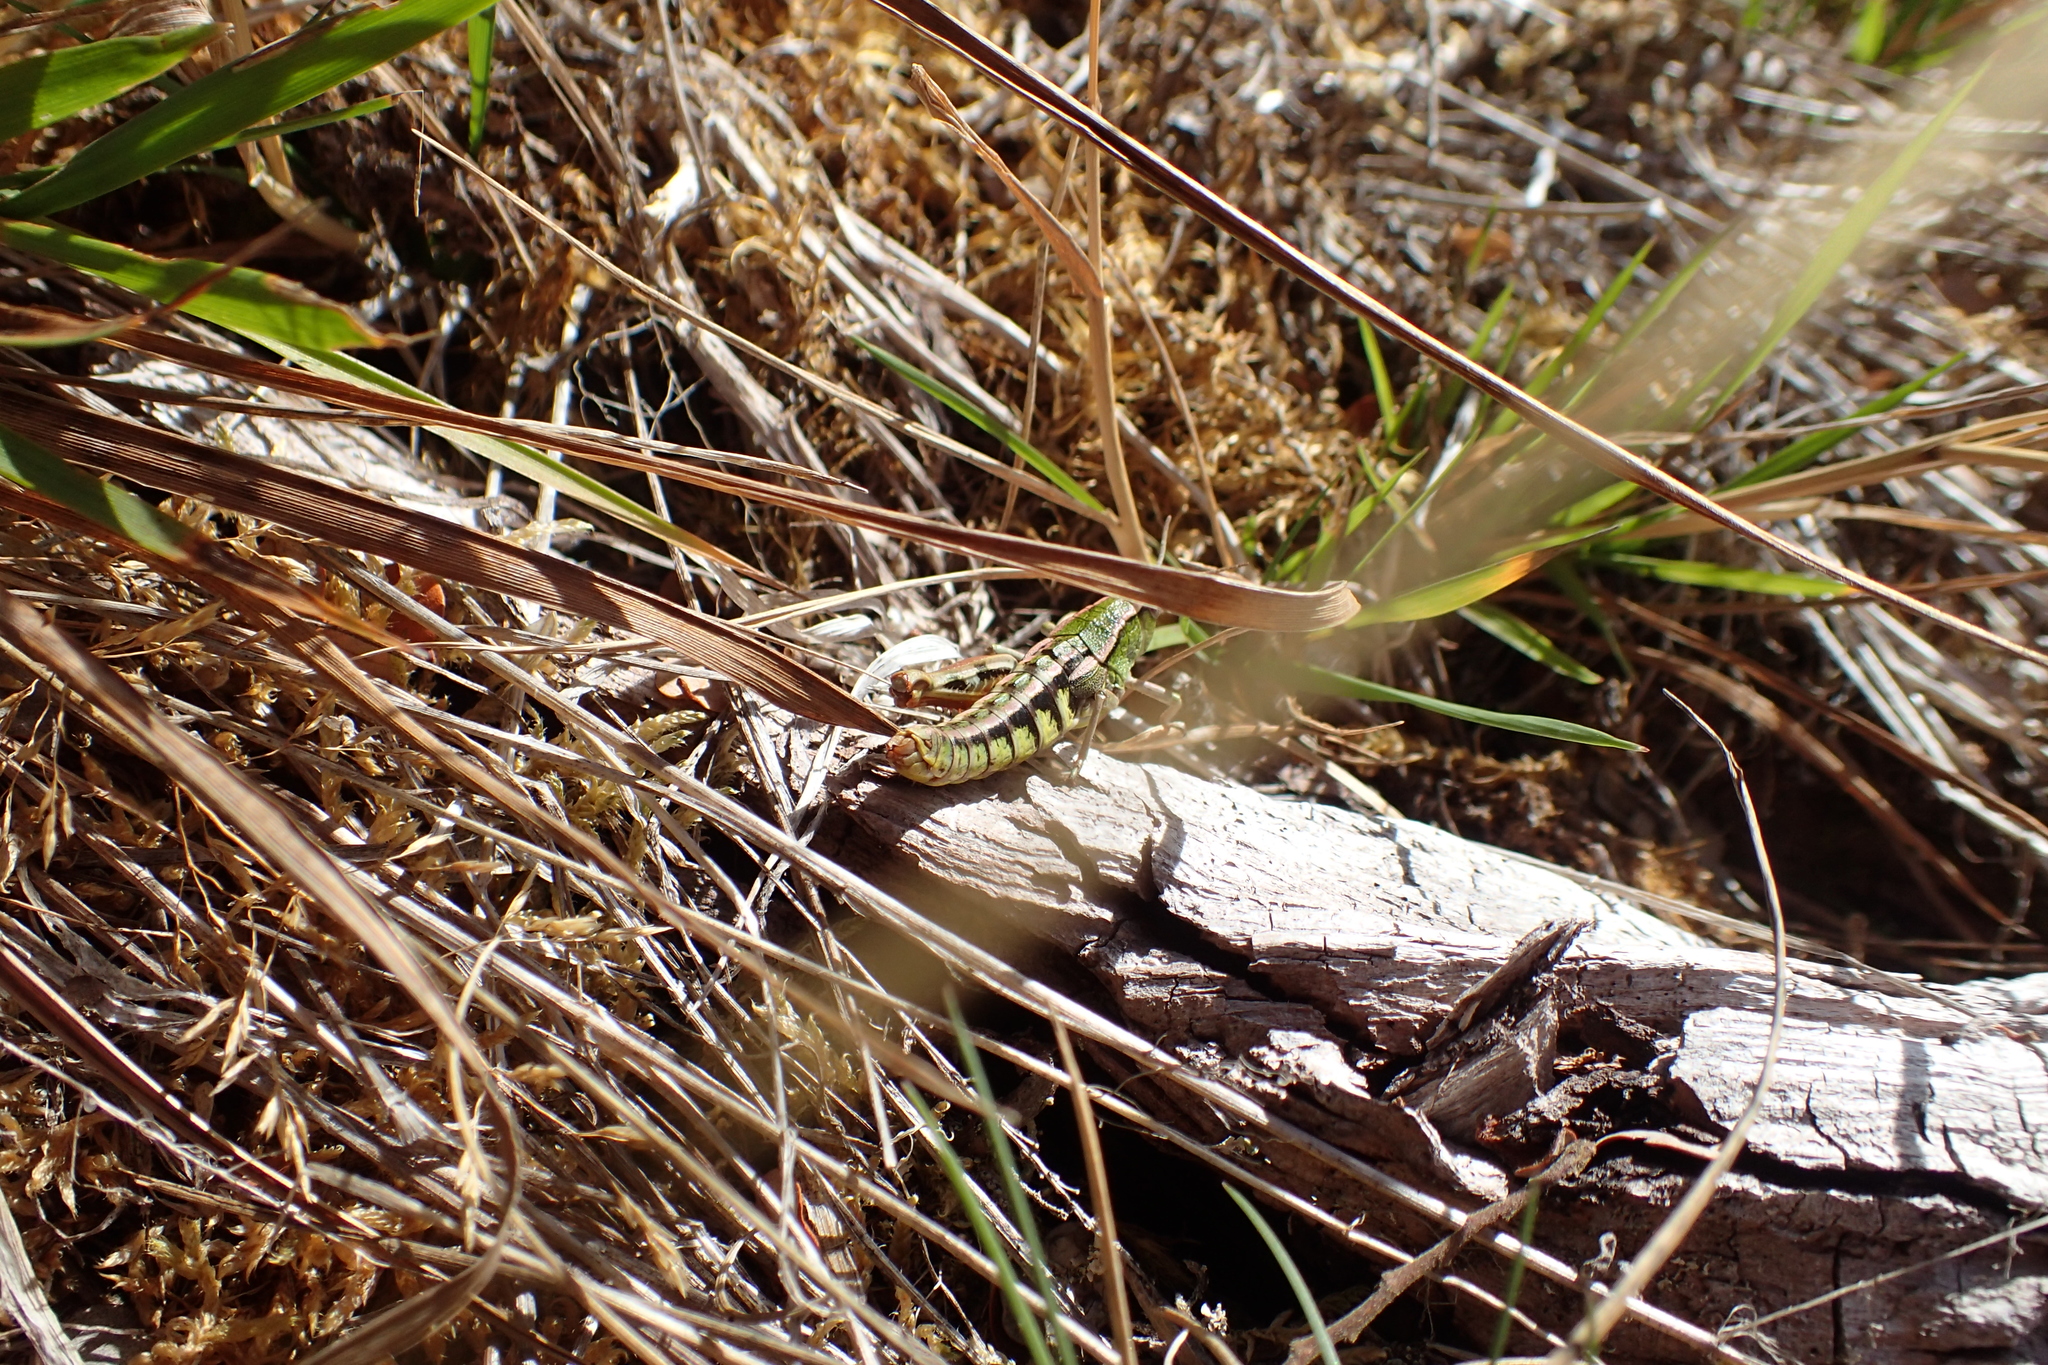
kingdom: Animalia
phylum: Arthropoda
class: Insecta
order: Orthoptera
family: Acrididae
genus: Sigaus
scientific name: Sigaus
